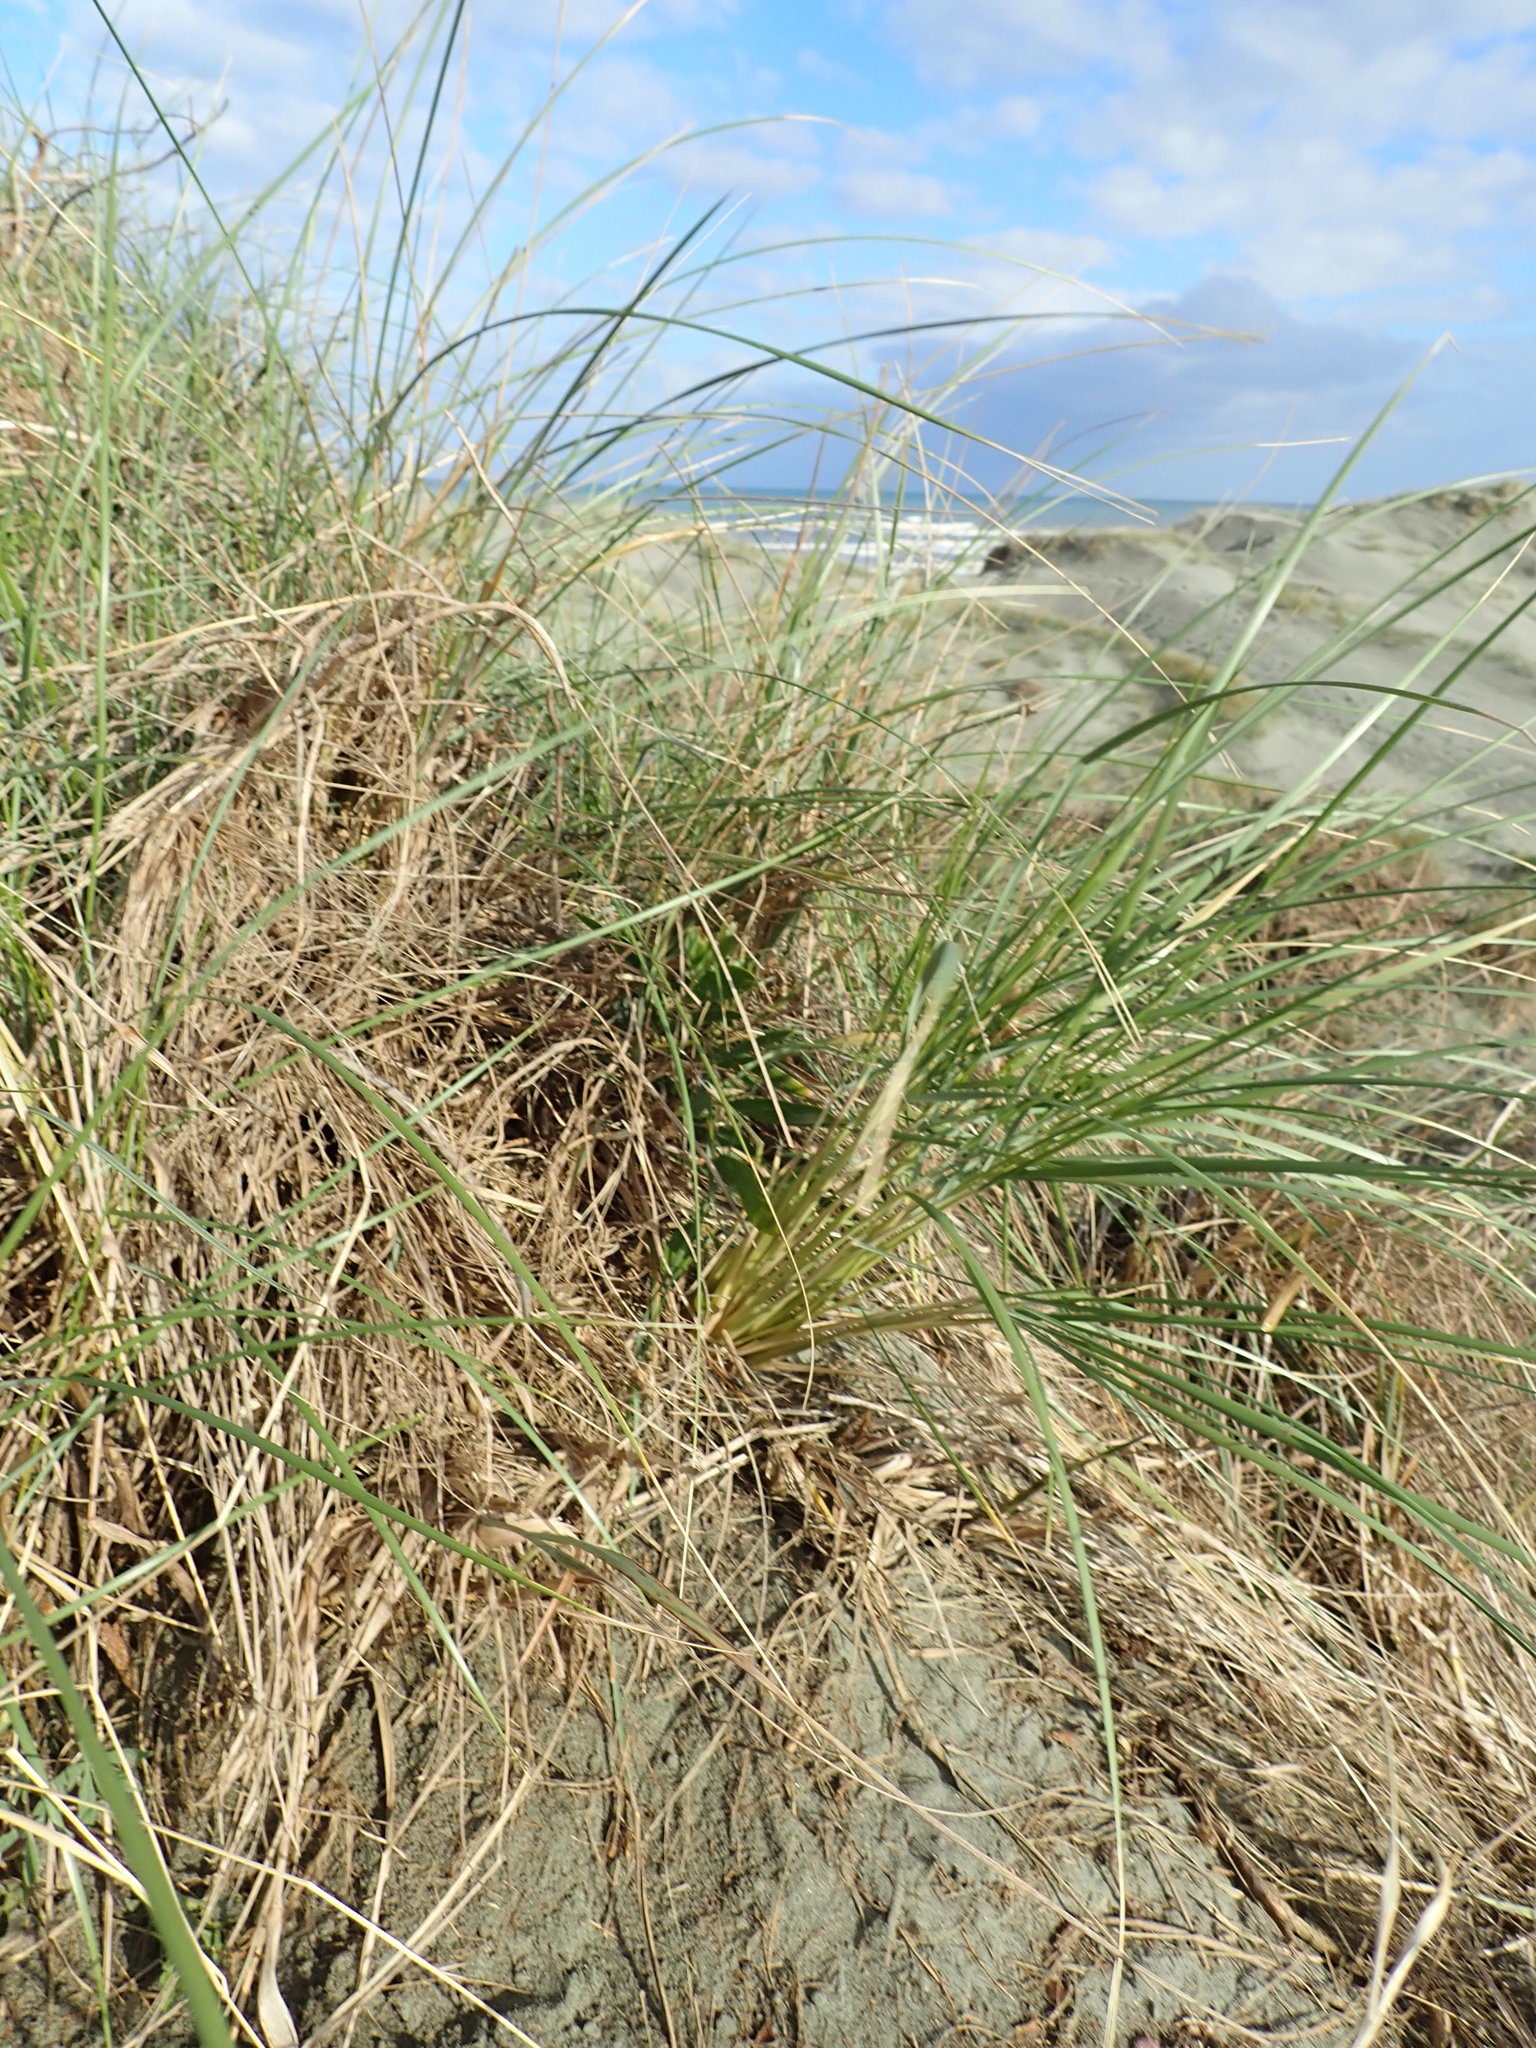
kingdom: Plantae
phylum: Tracheophyta
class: Magnoliopsida
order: Fabales
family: Fabaceae
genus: Acacia
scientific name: Acacia longifolia
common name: Sydney golden wattle
